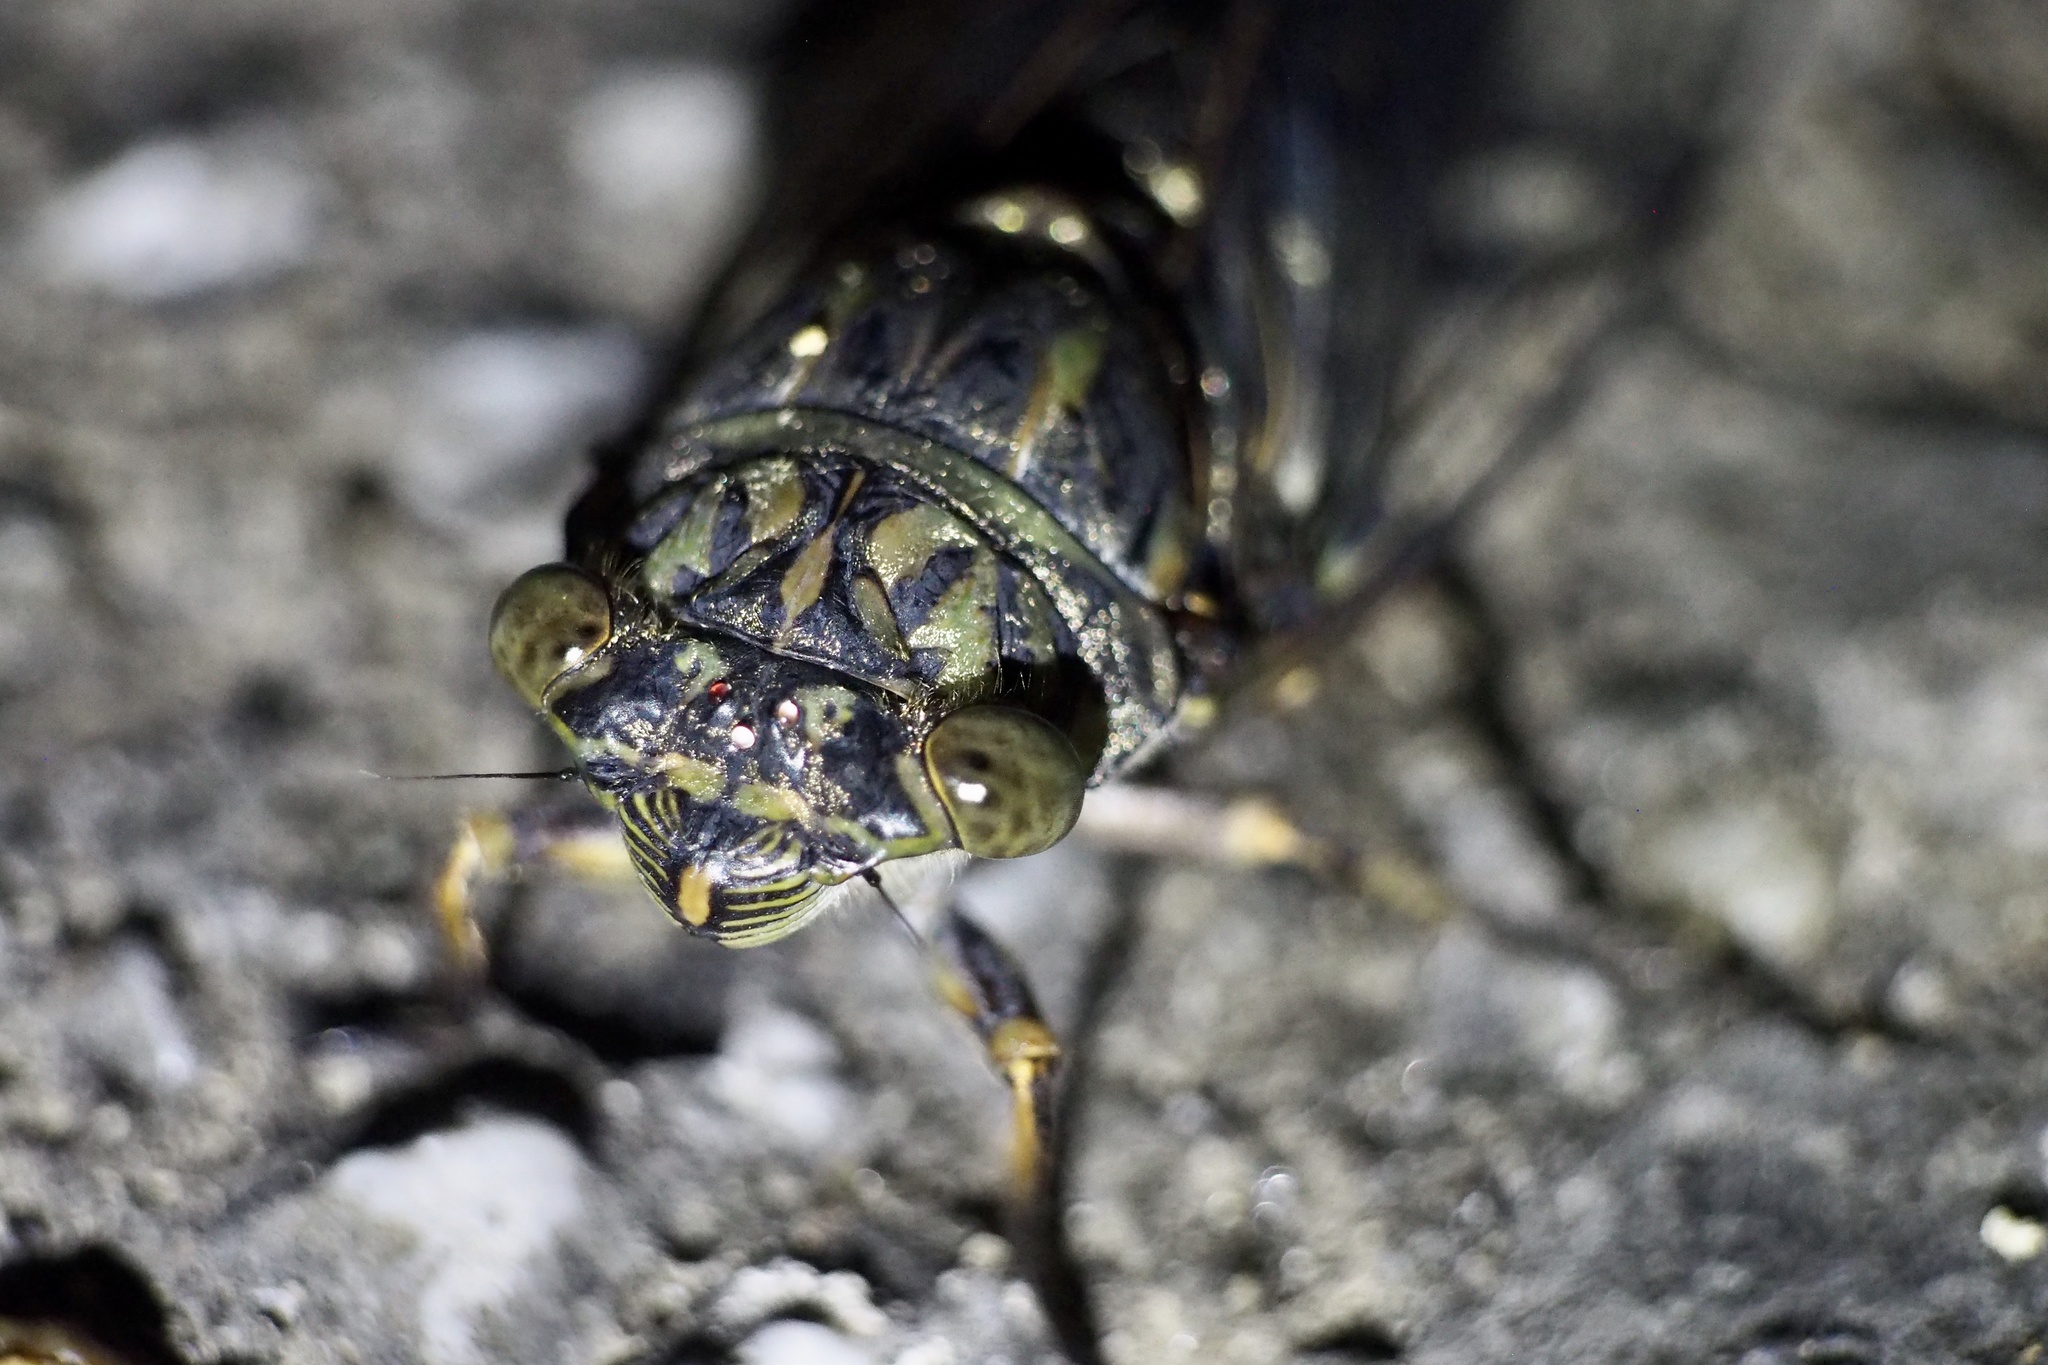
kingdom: Animalia
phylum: Arthropoda
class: Insecta
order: Hemiptera
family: Cicadidae
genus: Meimuna
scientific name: Meimuna opalifera
